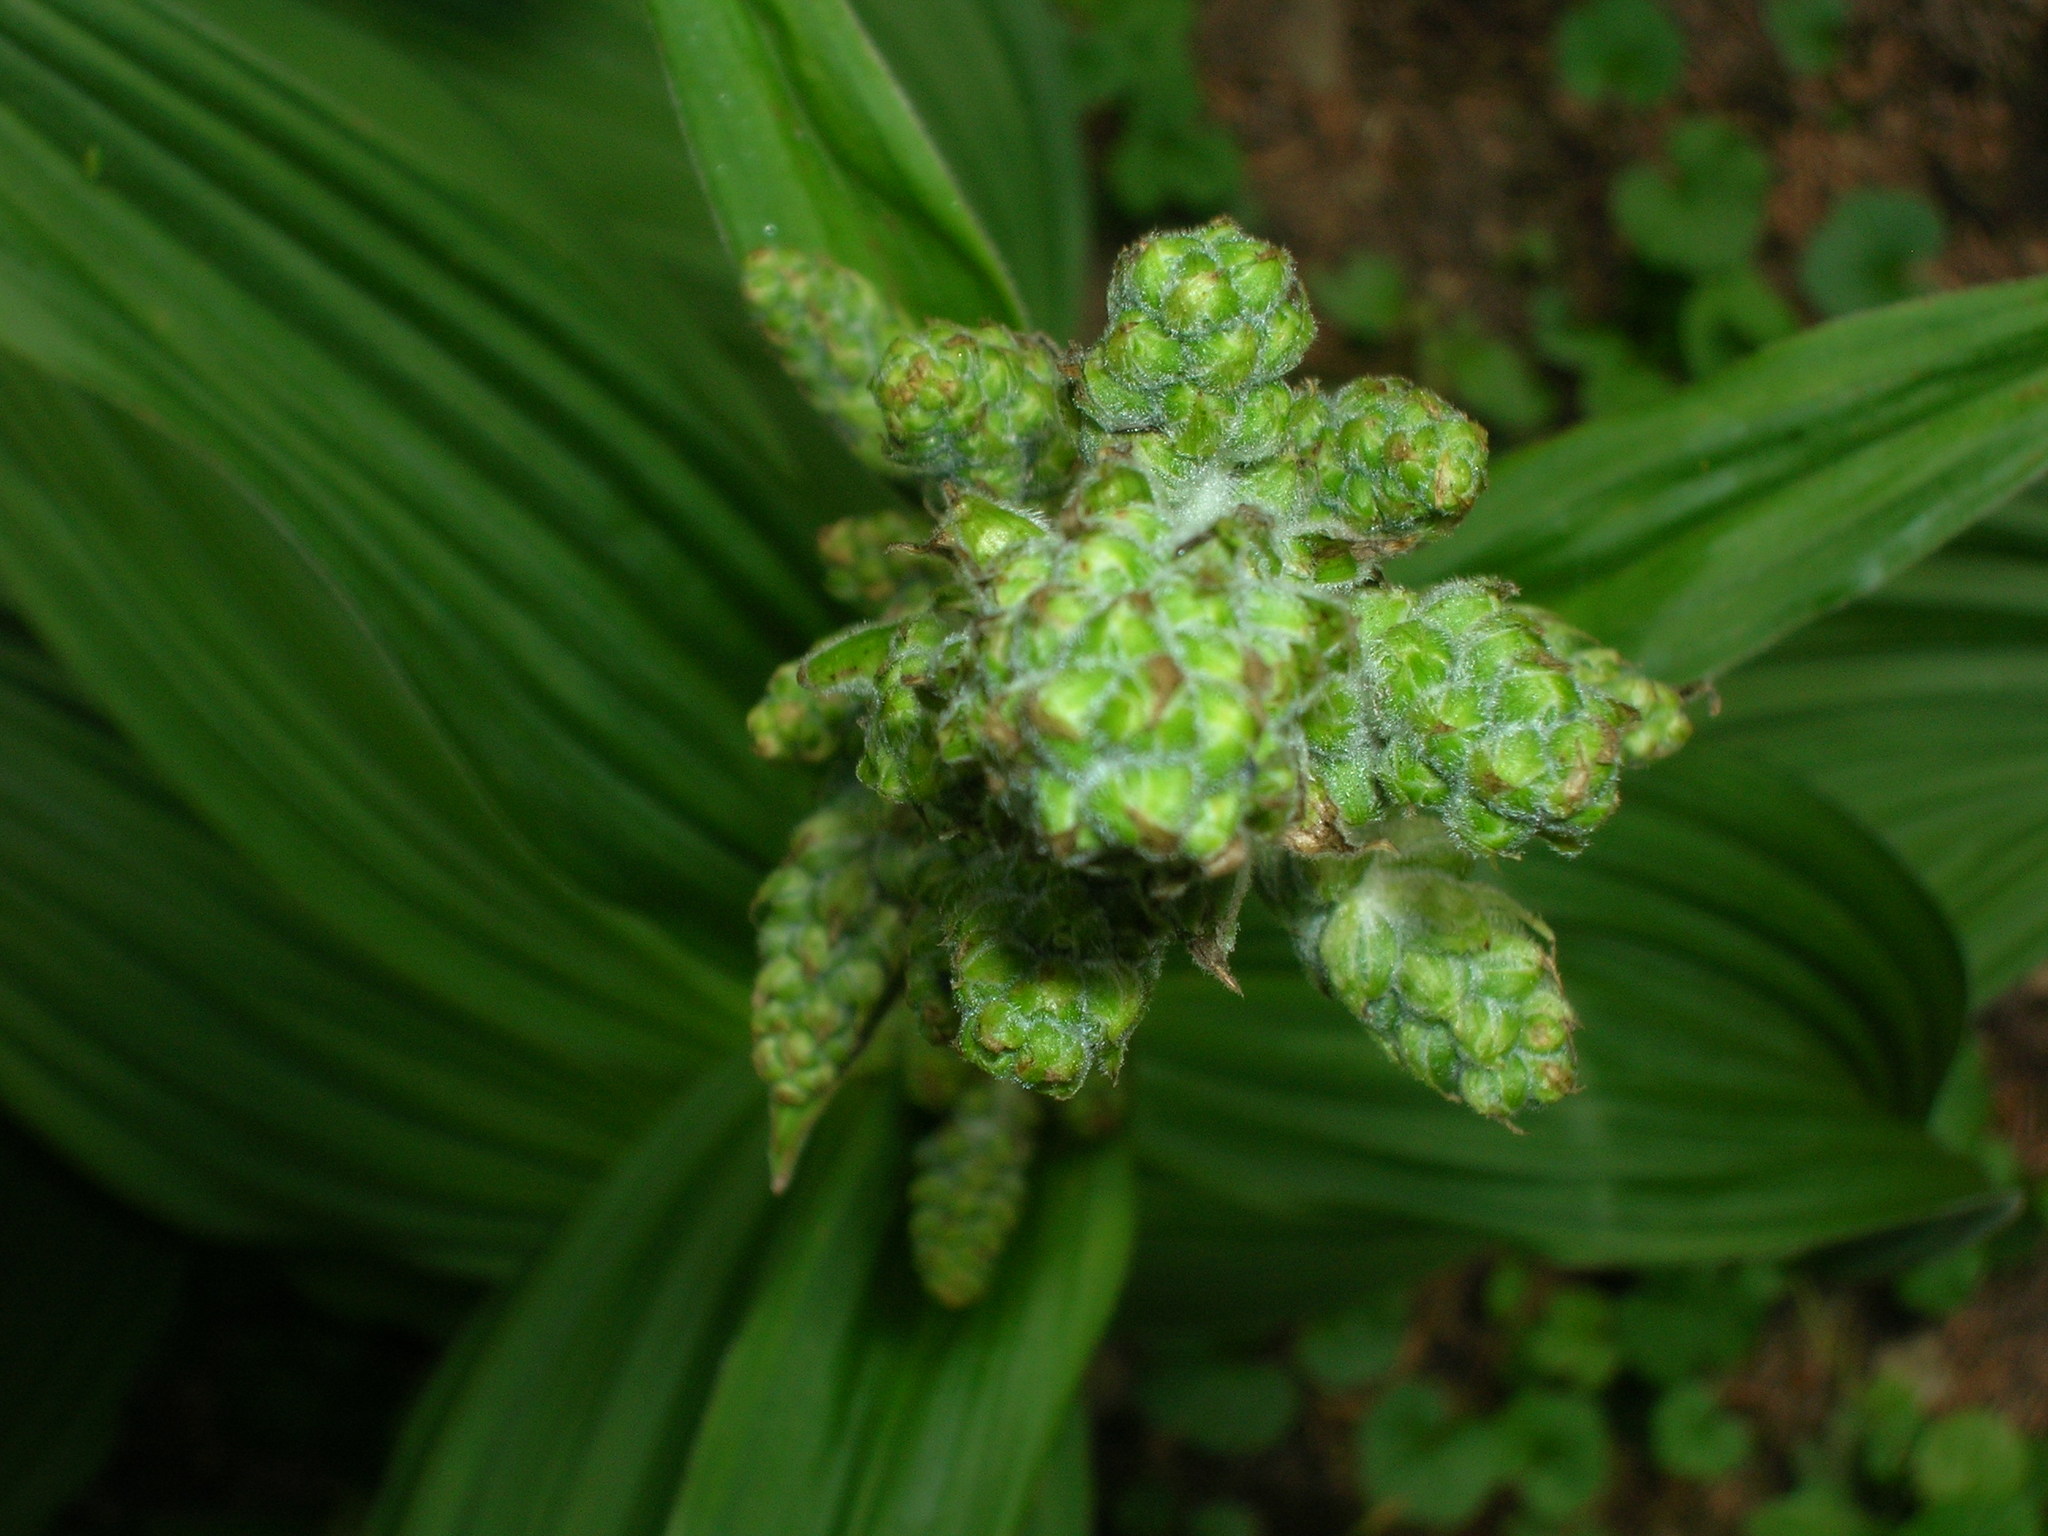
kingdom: Plantae
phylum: Tracheophyta
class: Liliopsida
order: Liliales
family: Melanthiaceae
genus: Veratrum
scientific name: Veratrum viride
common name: American false hellebore
